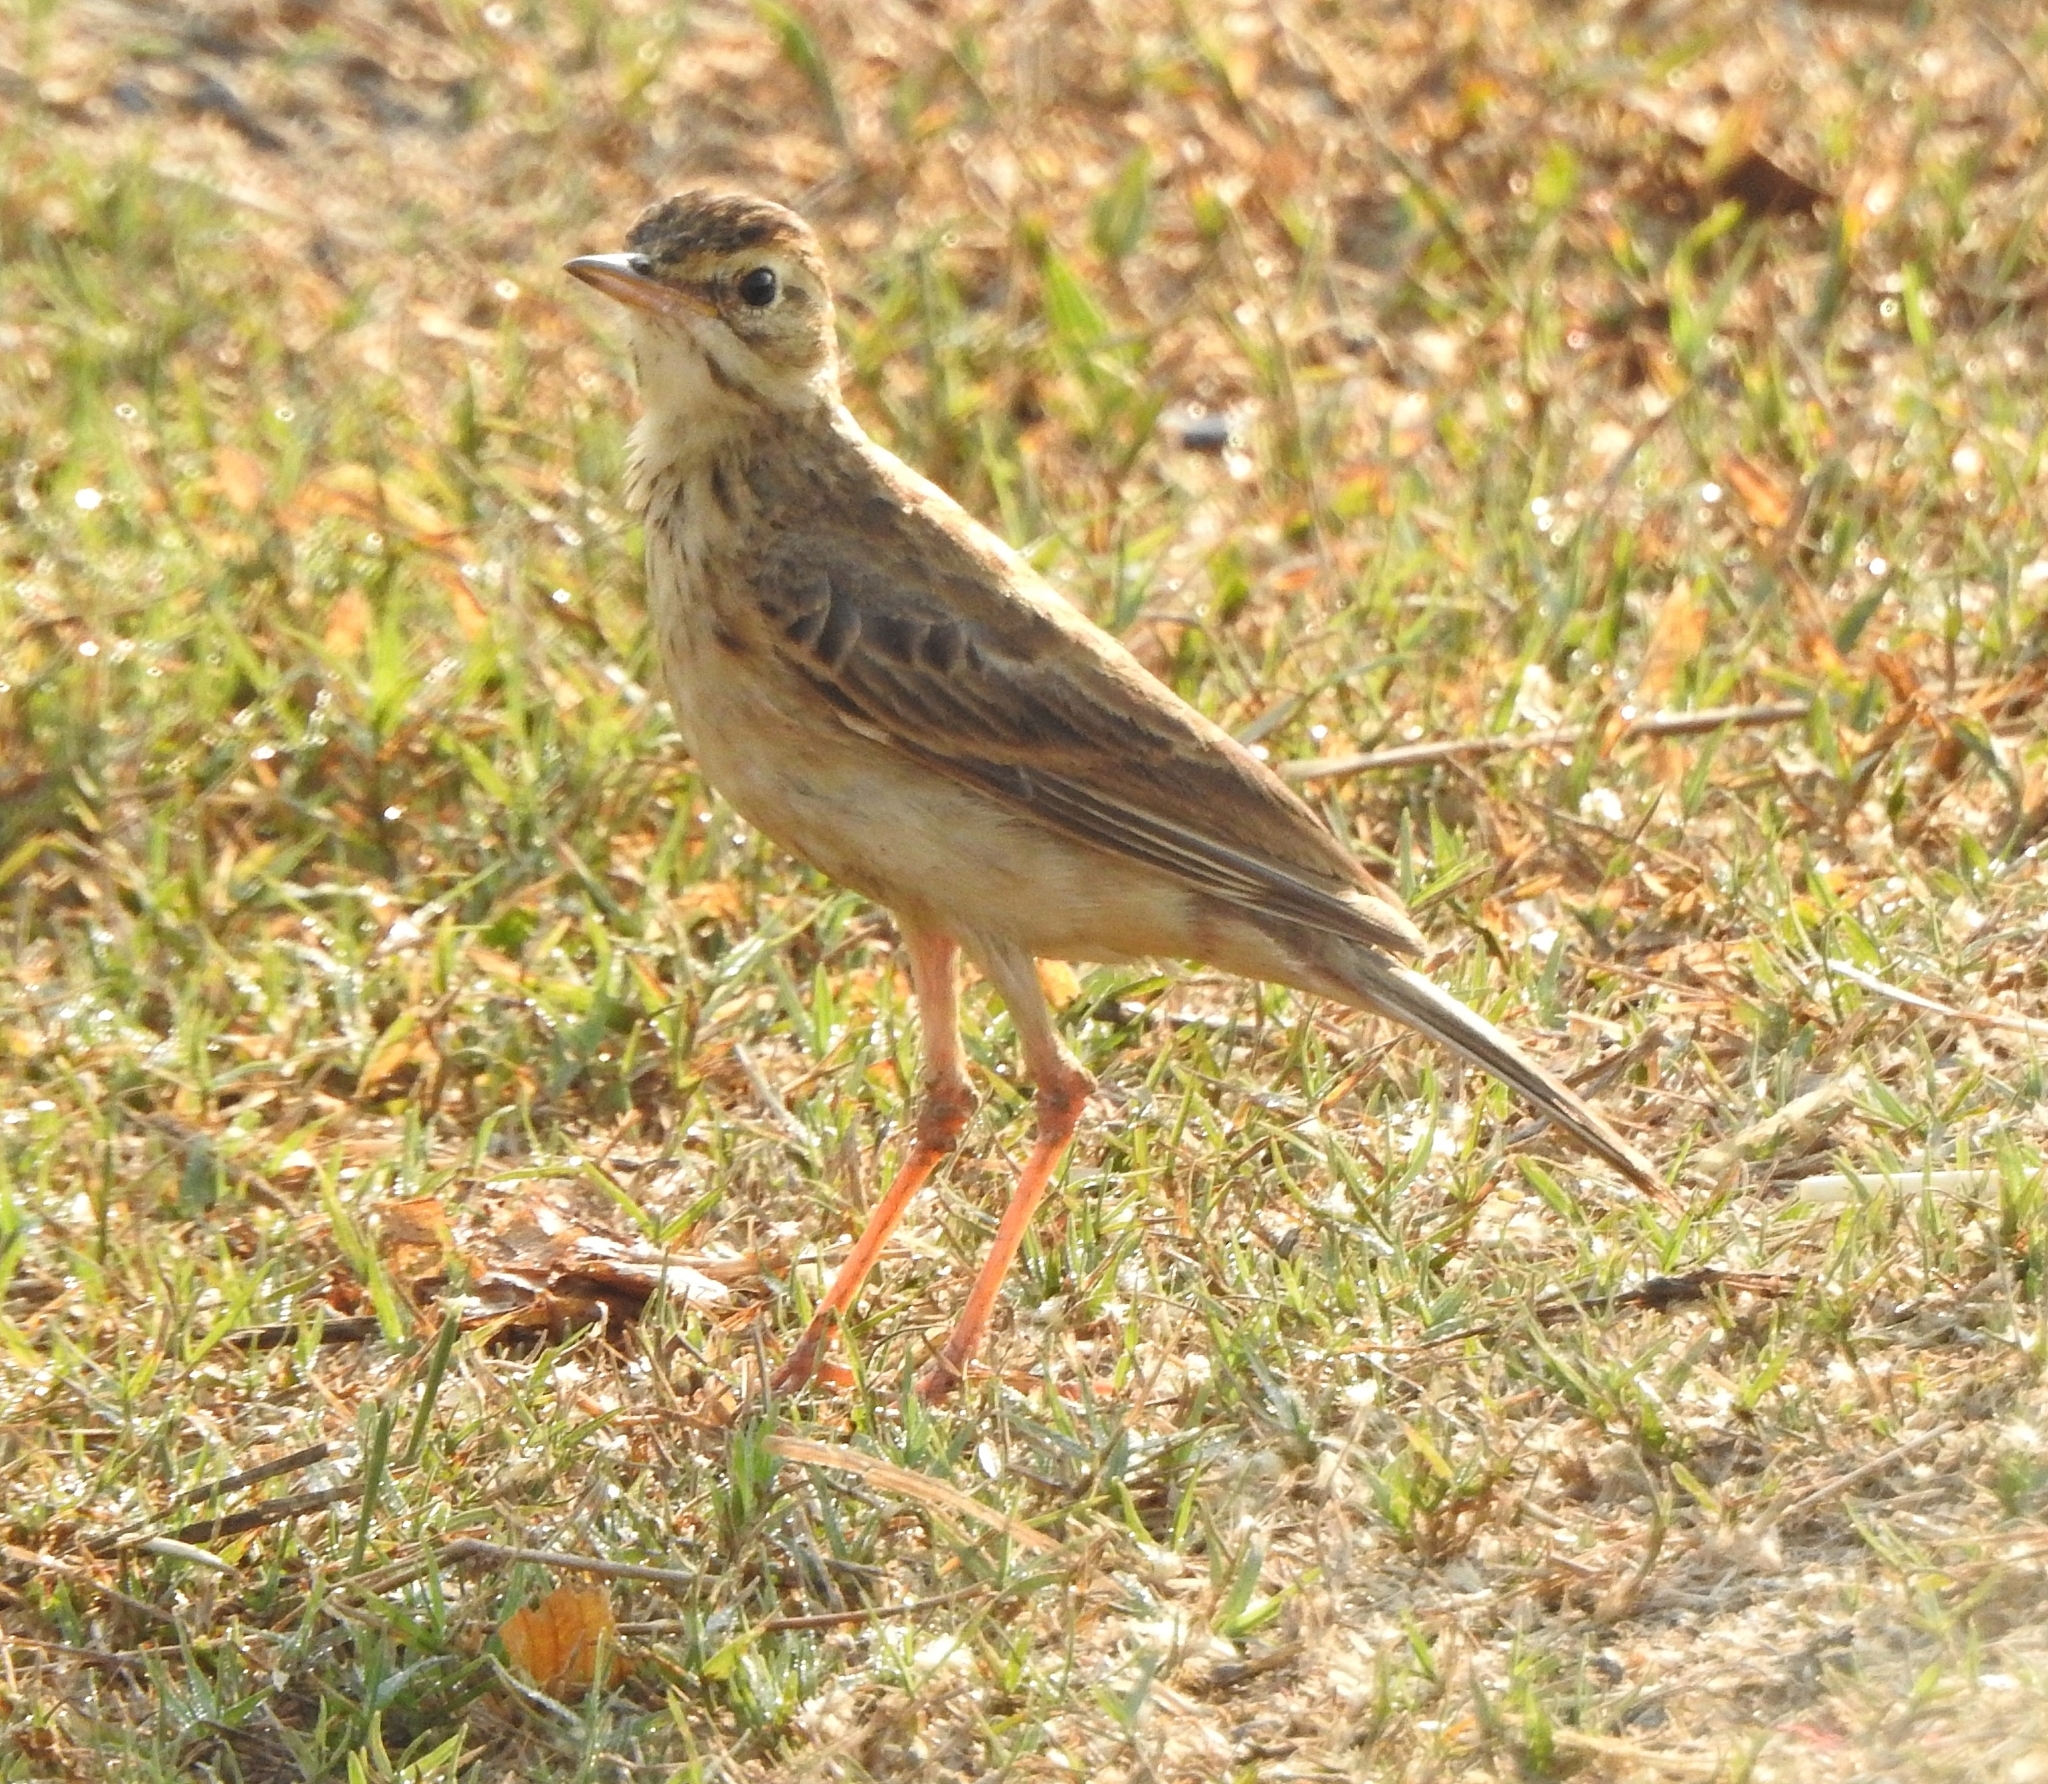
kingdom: Animalia
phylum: Chordata
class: Aves
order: Passeriformes
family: Motacillidae
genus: Anthus
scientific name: Anthus rufulus
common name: Paddyfield pipit
